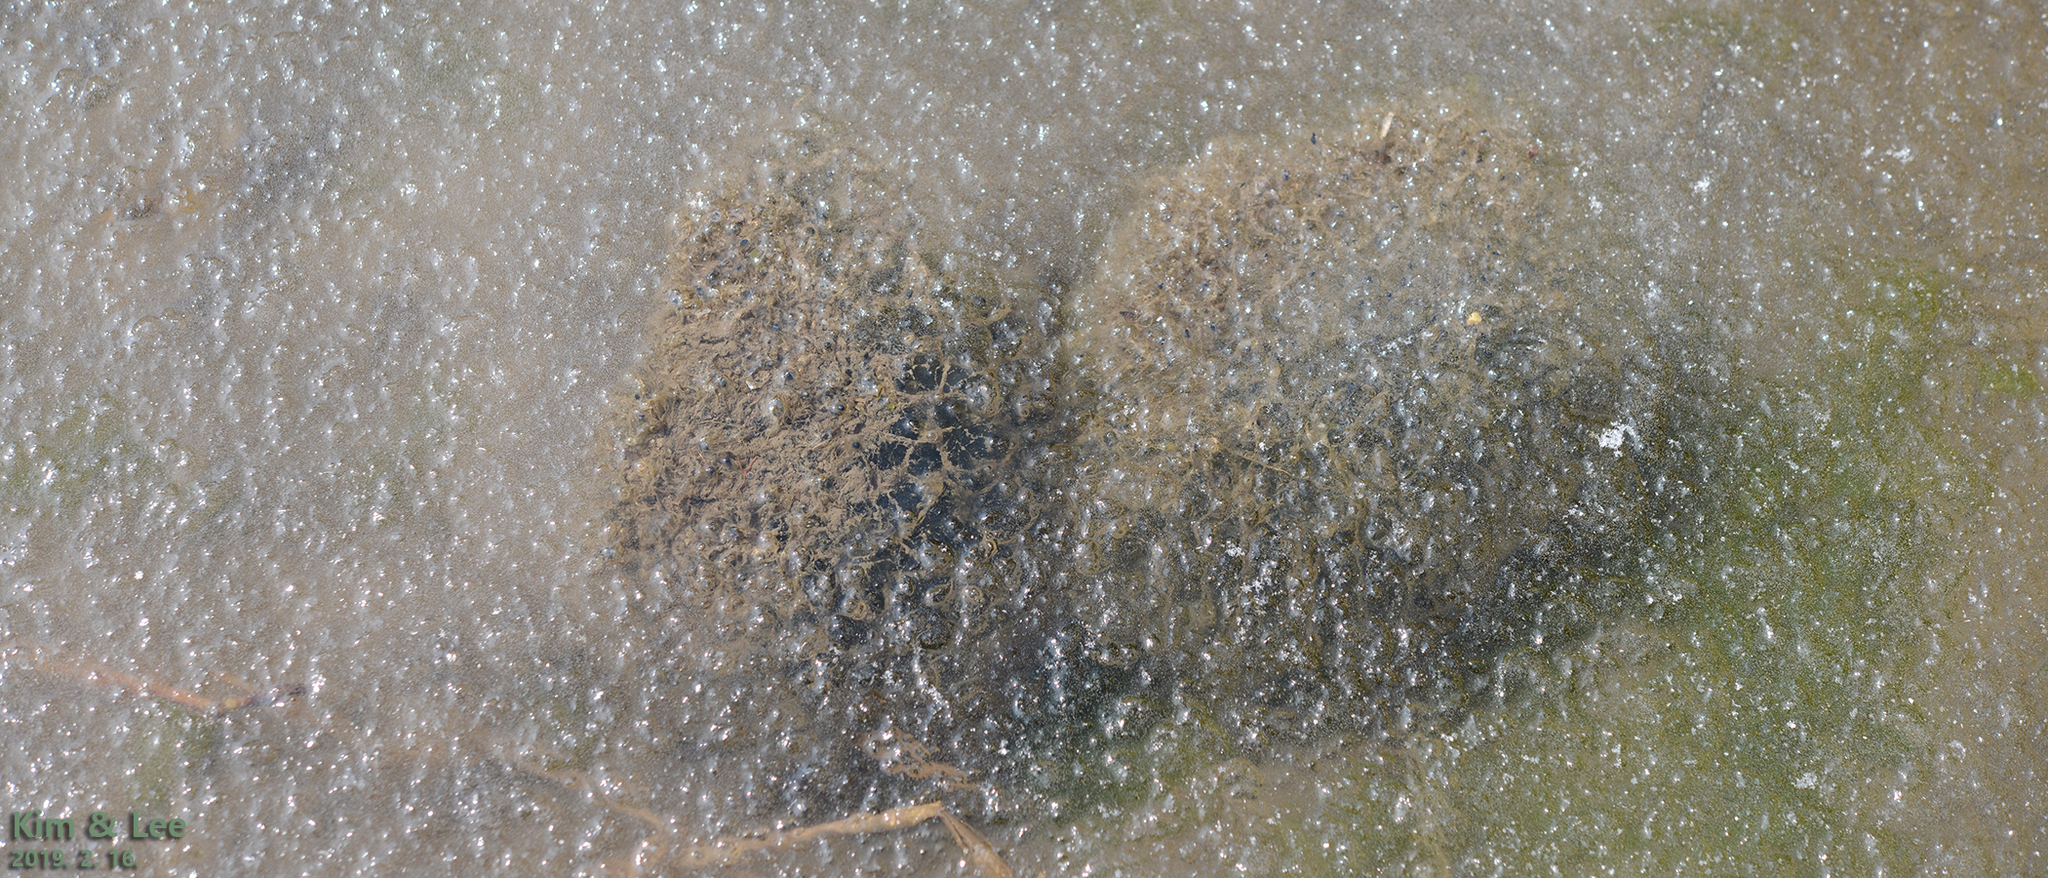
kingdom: Animalia
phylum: Chordata
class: Amphibia
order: Anura
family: Ranidae
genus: Rana
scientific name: Rana uenoi
